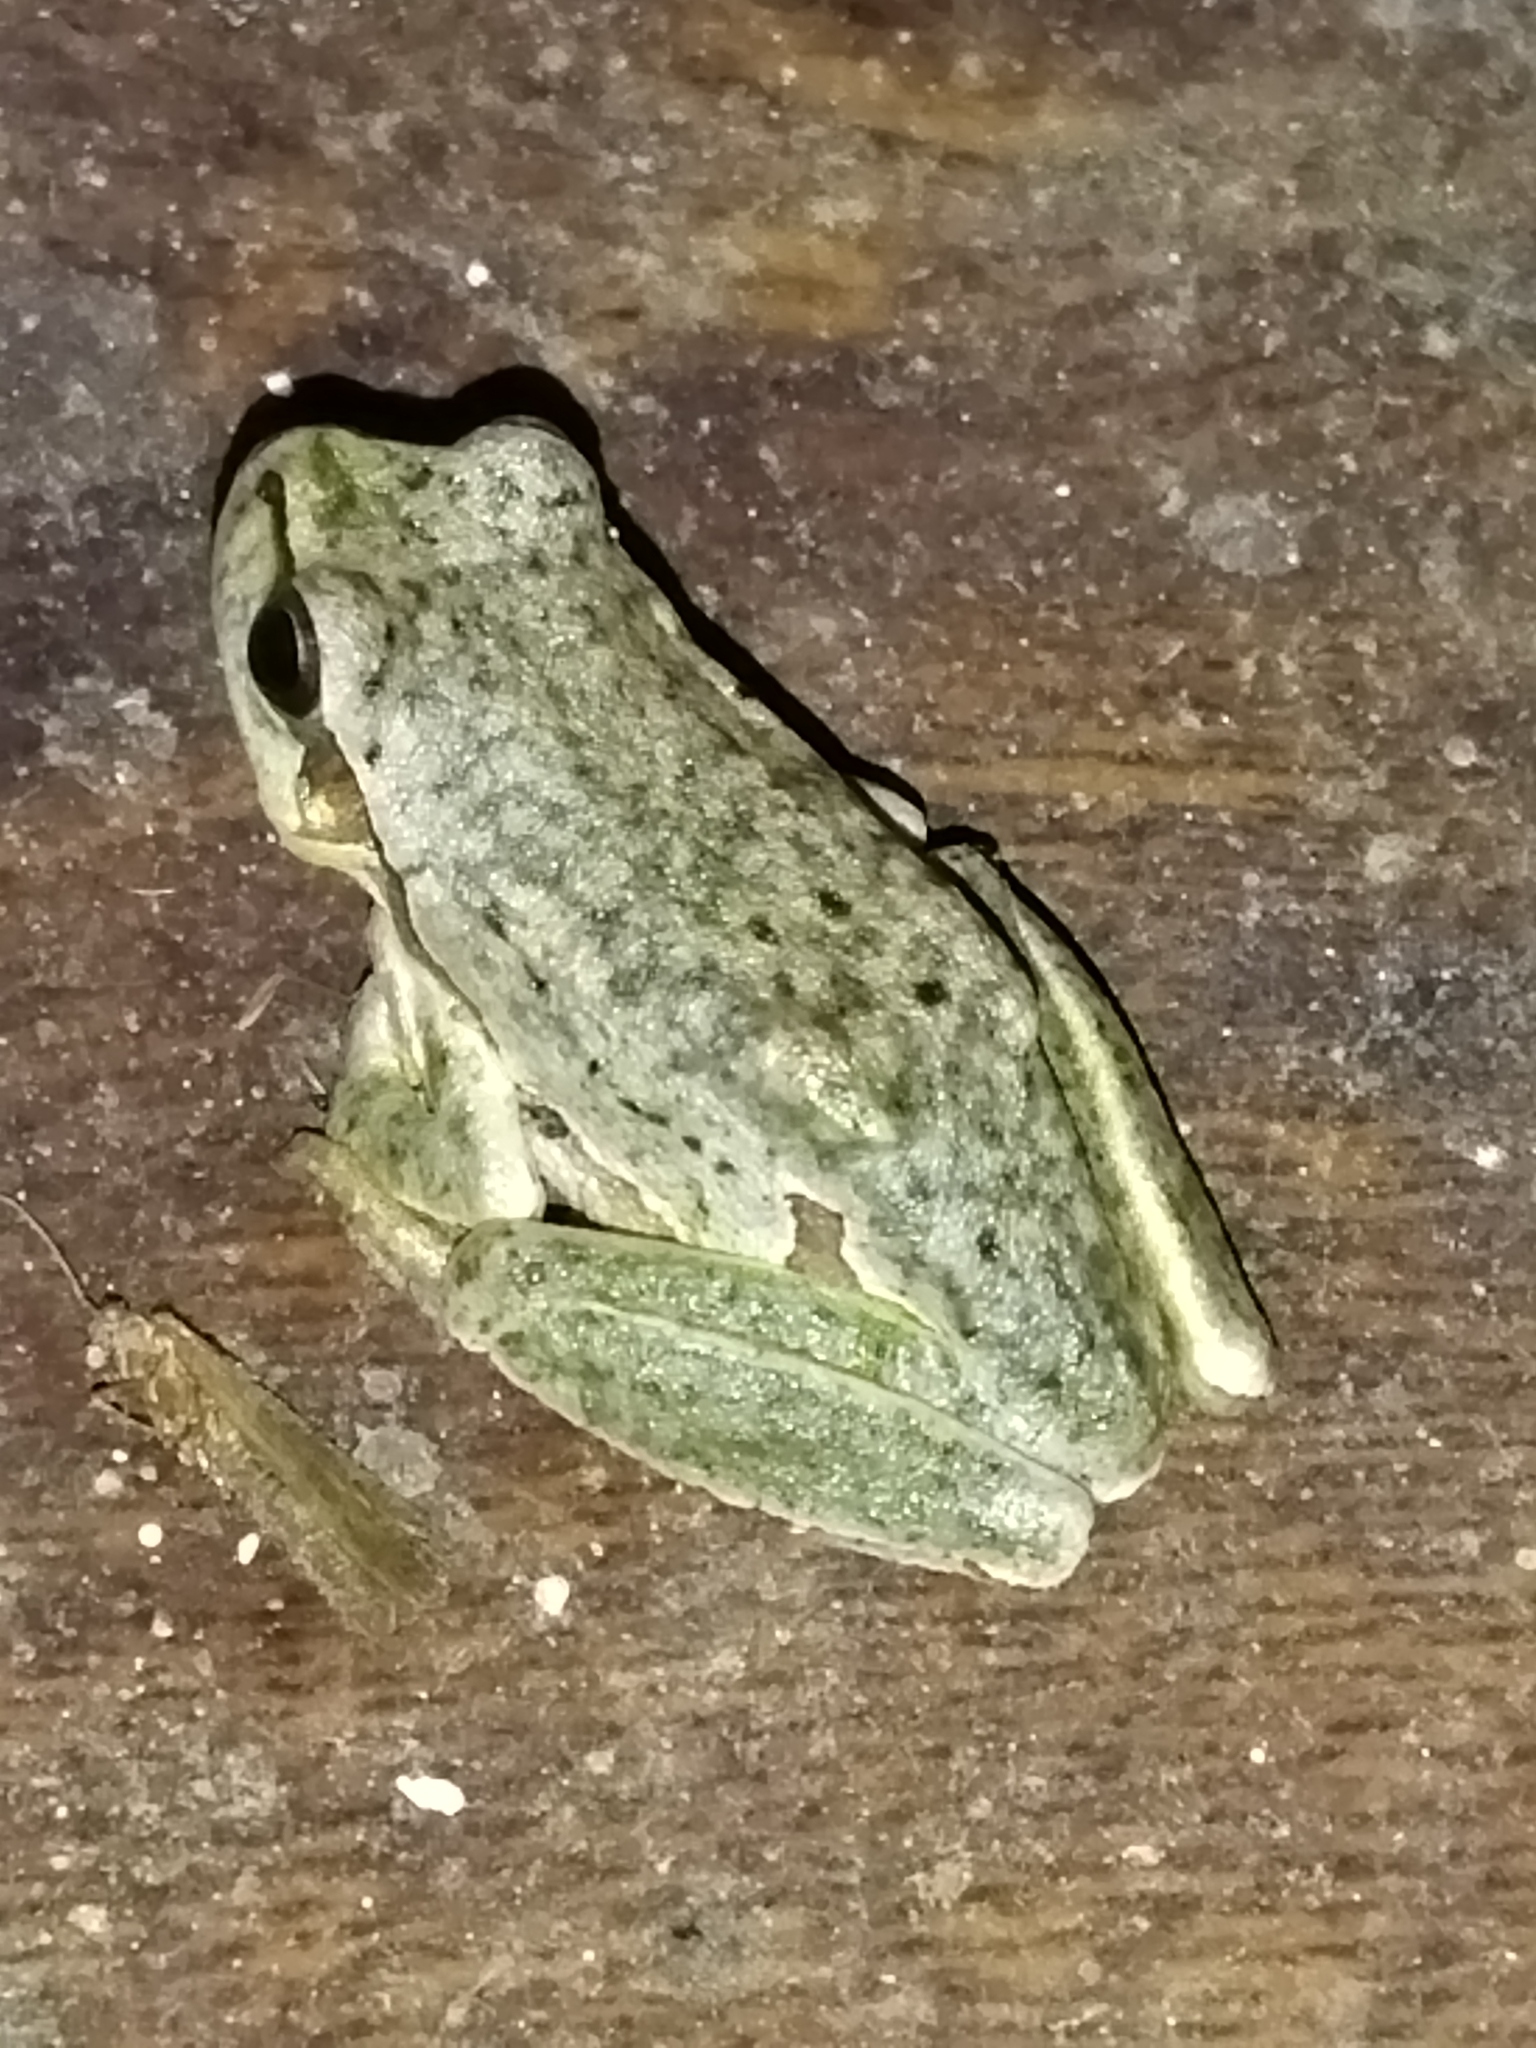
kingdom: Animalia
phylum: Chordata
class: Amphibia
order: Anura
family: Hylidae
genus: Hyla
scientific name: Hyla orientalis
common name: Caucasian treefrog
